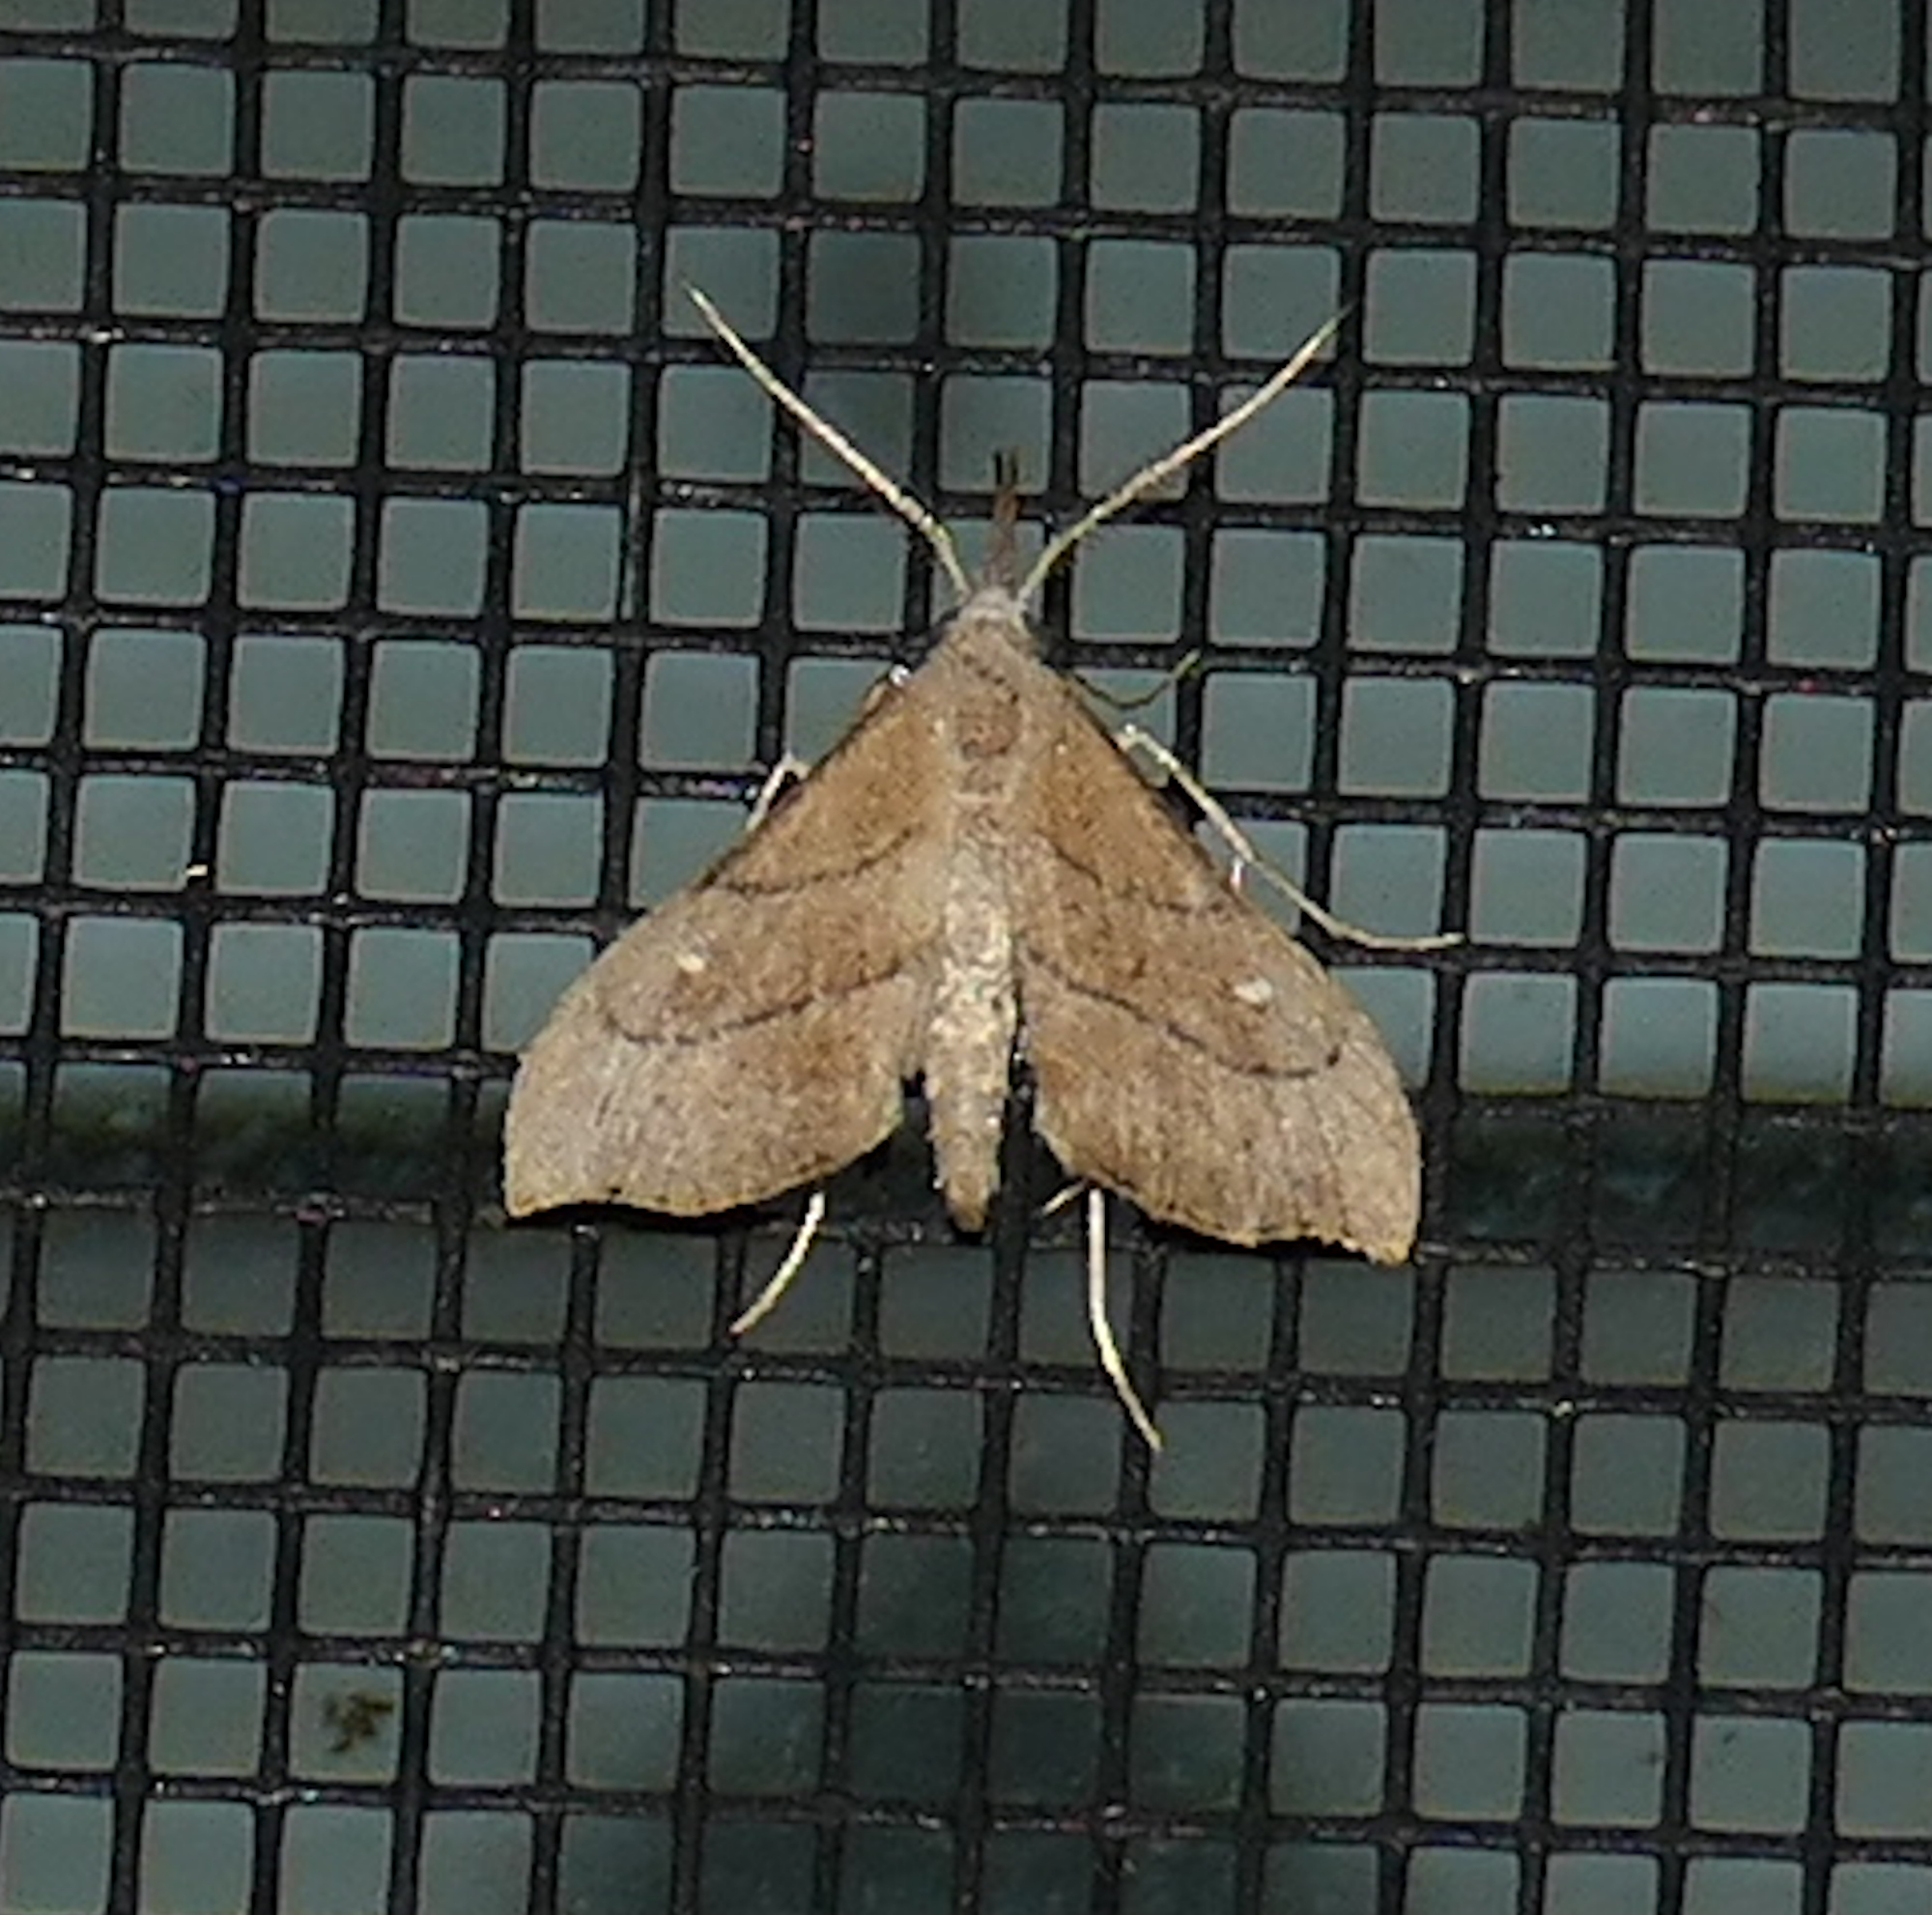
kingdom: Animalia
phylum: Arthropoda
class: Insecta
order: Lepidoptera
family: Erebidae
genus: Macristis
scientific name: Macristis schausi
